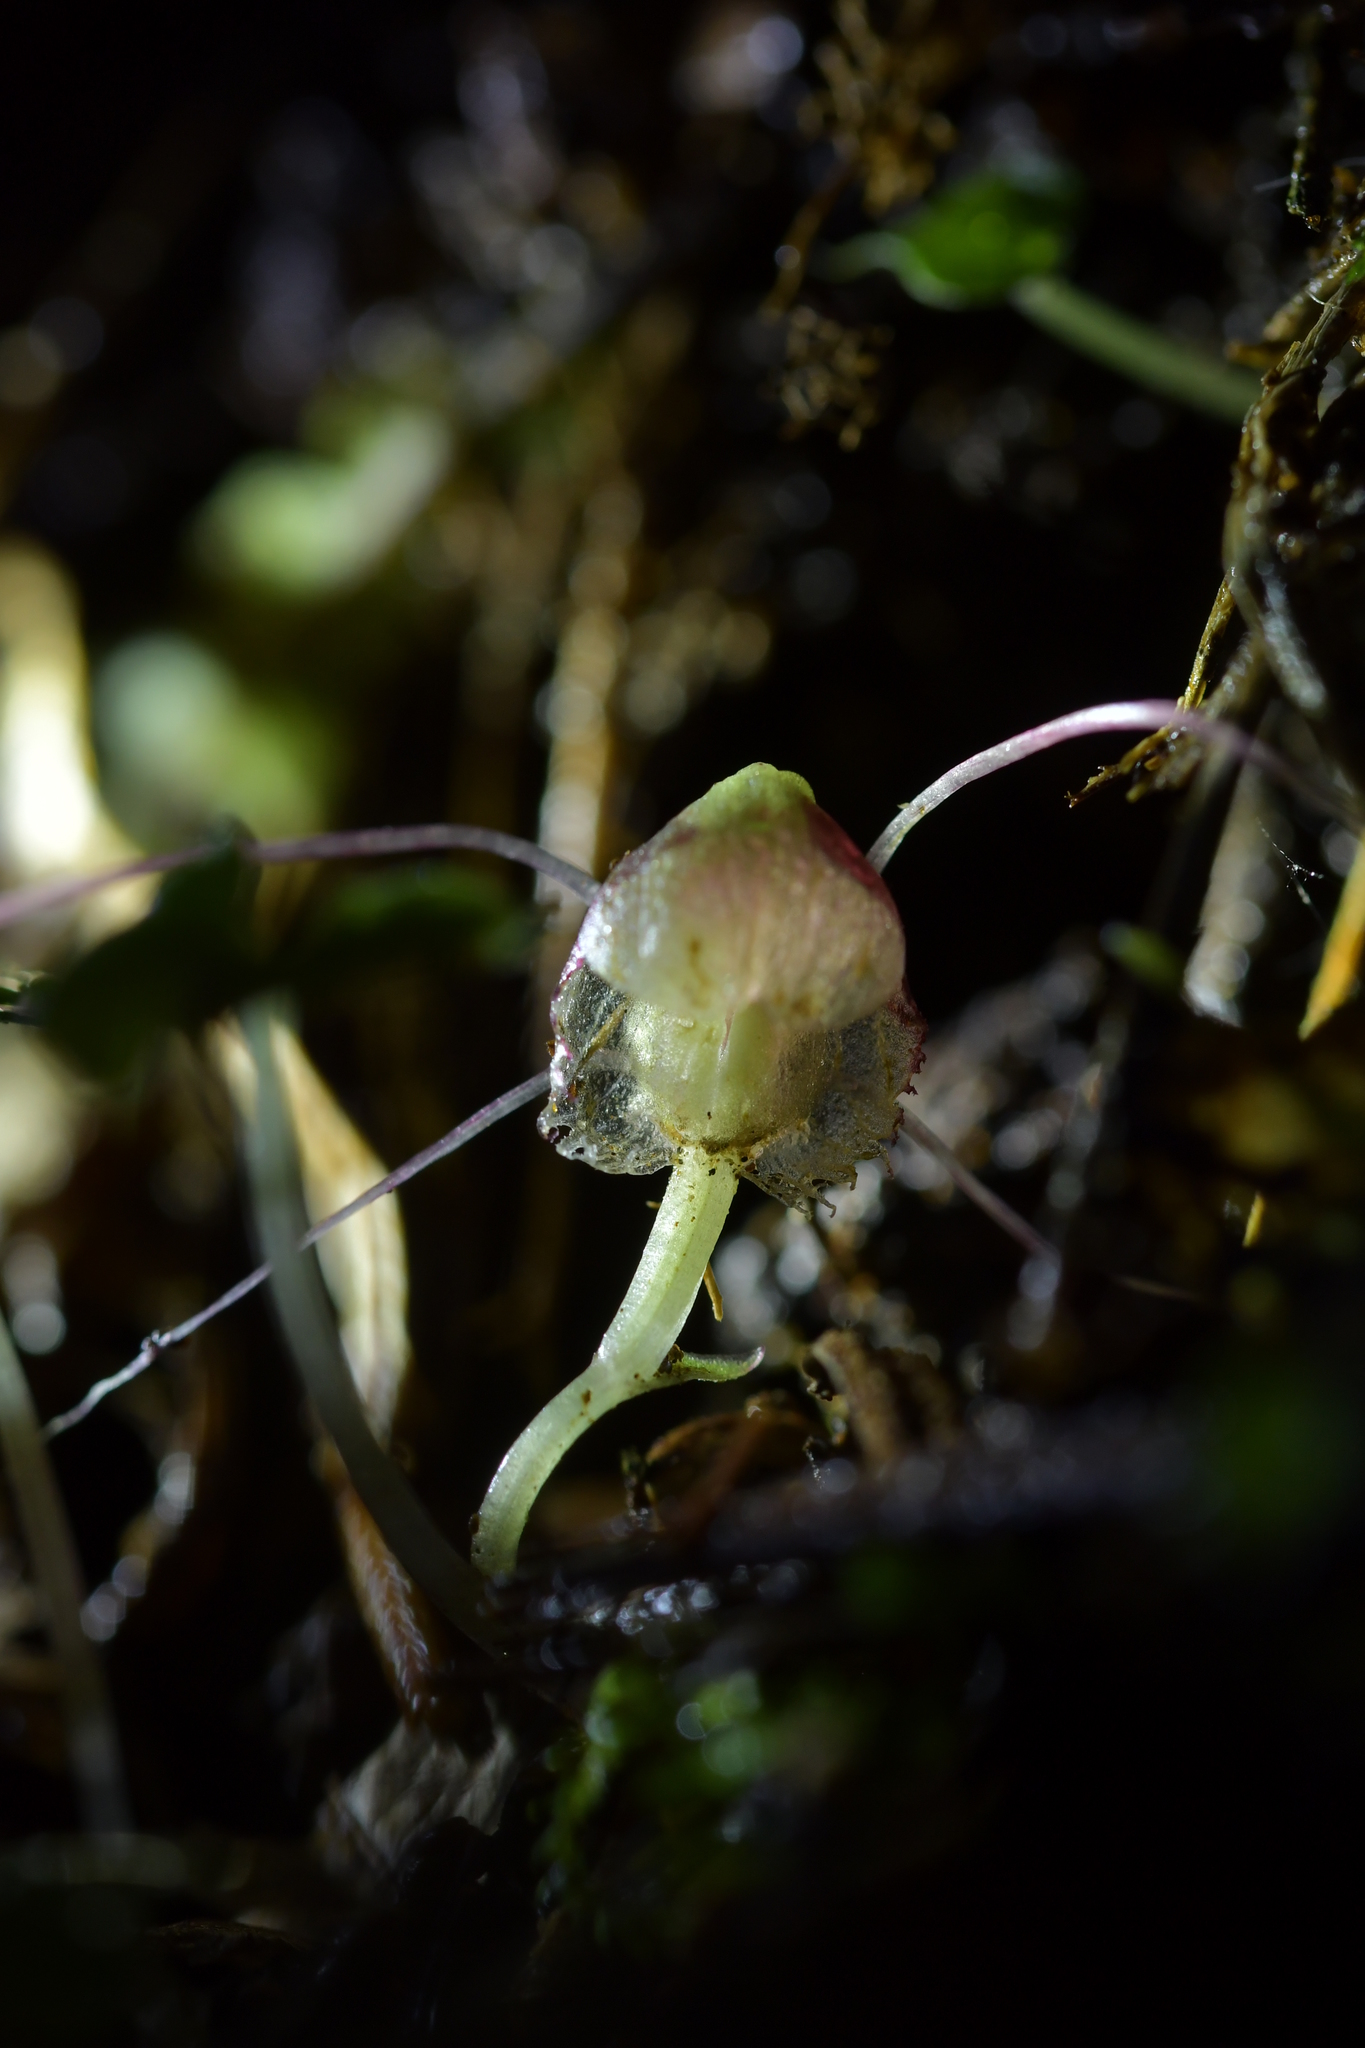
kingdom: Plantae
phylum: Tracheophyta
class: Liliopsida
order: Asparagales
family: Orchidaceae
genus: Corybas
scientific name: Corybas vitreus
